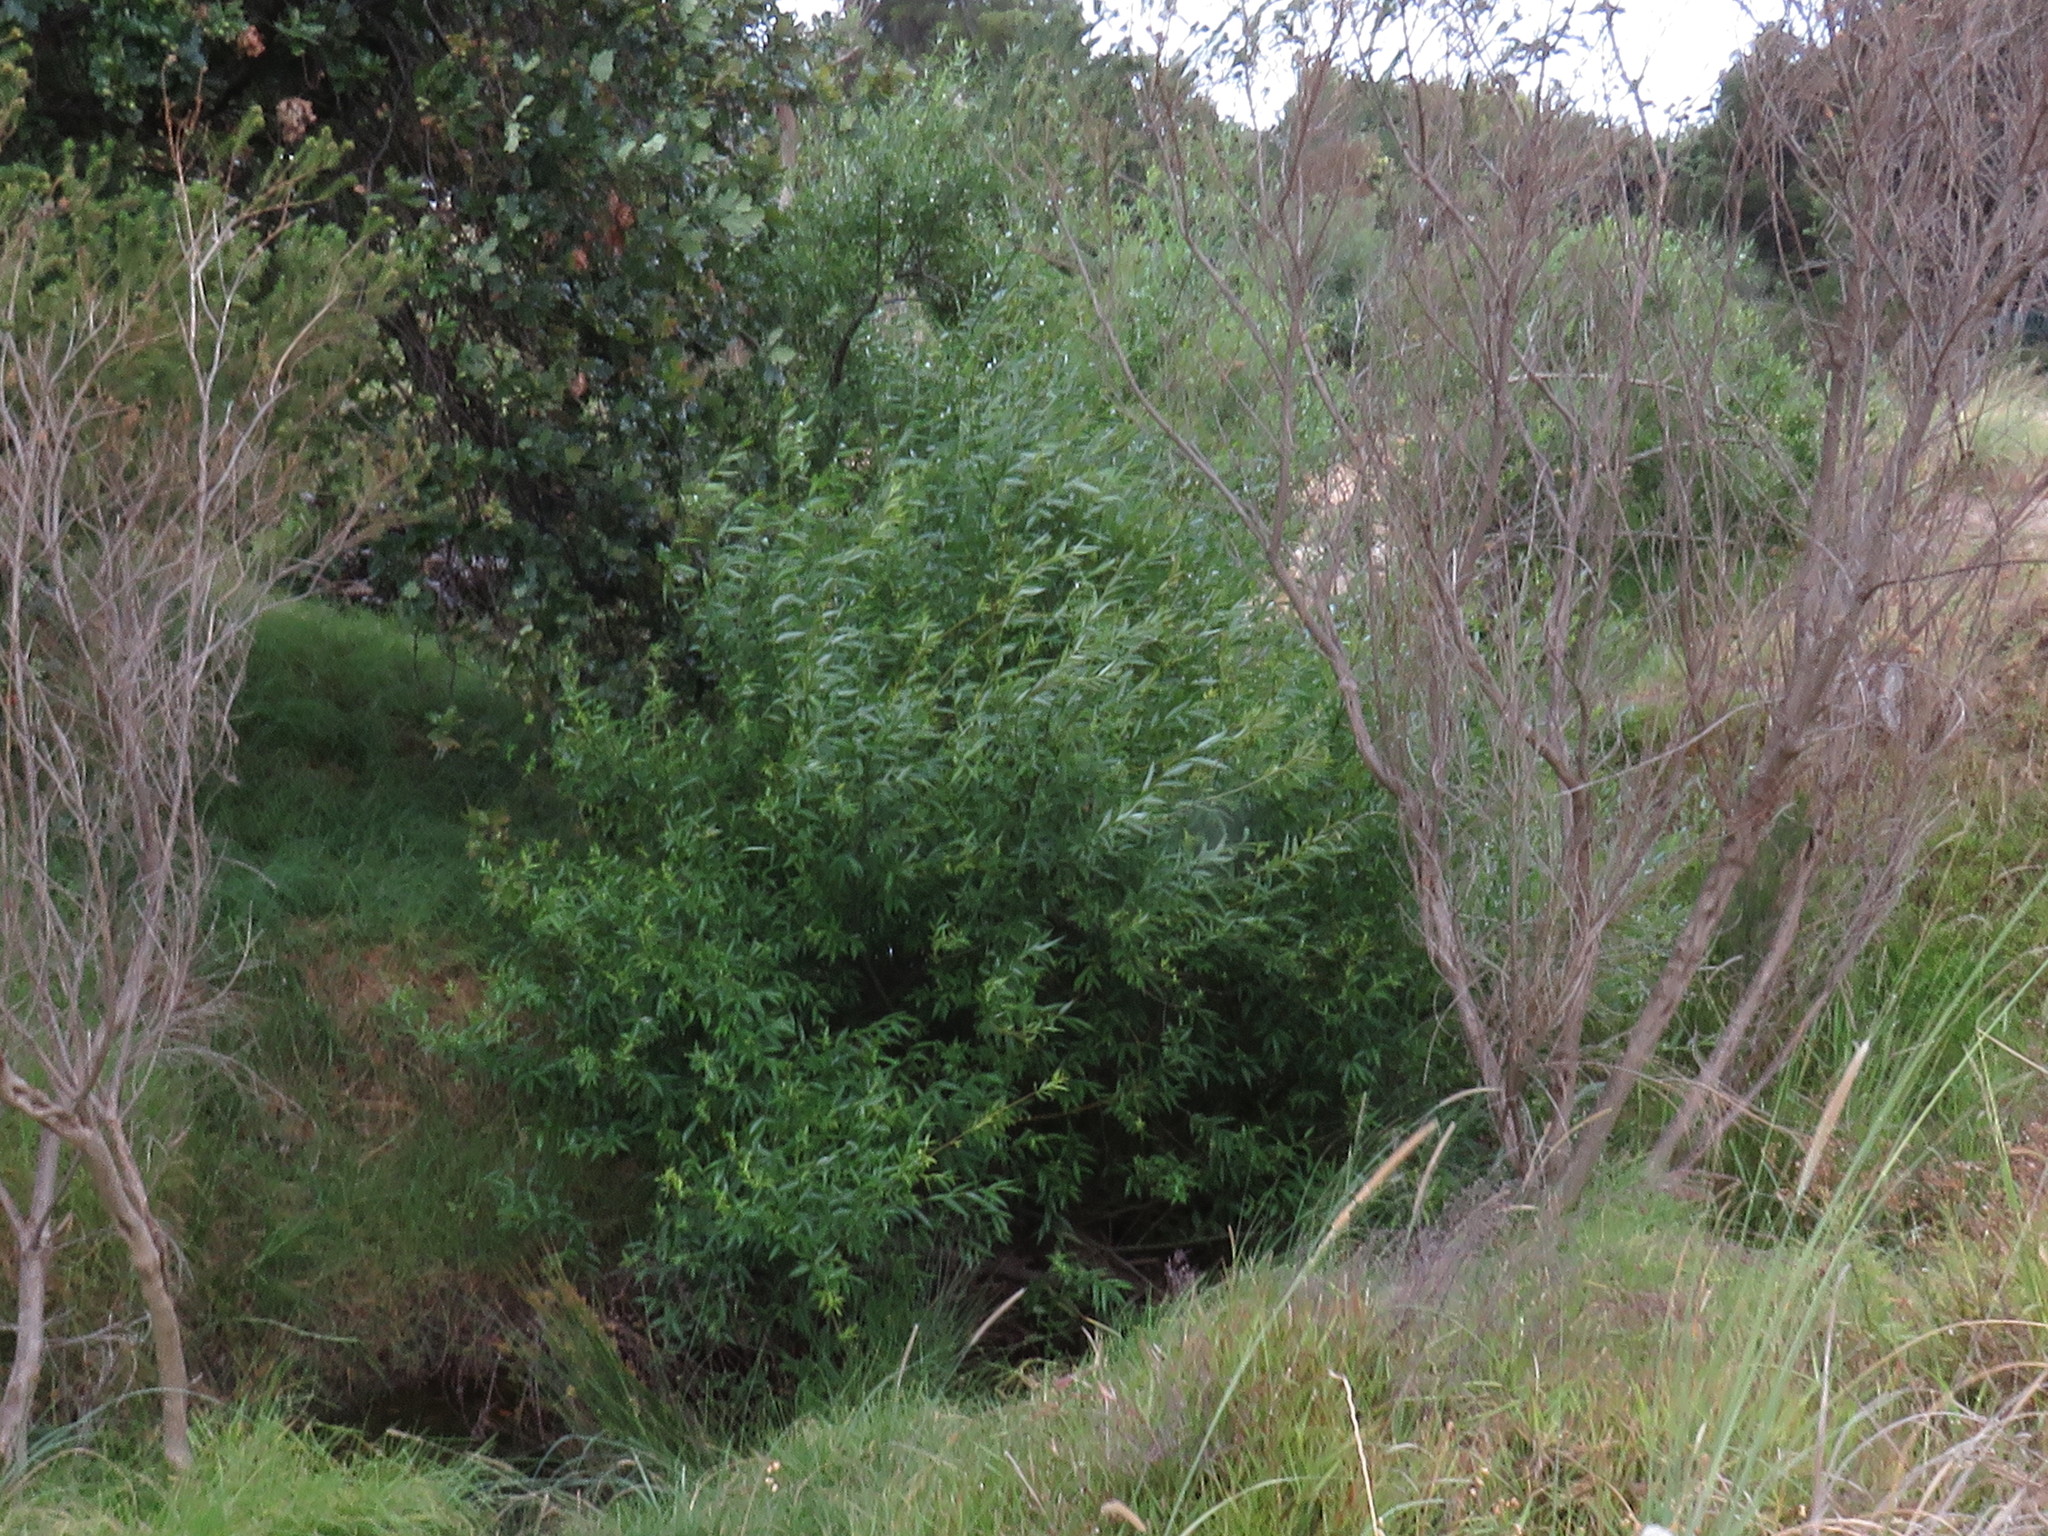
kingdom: Plantae
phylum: Tracheophyta
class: Magnoliopsida
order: Malpighiales
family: Salicaceae
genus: Salix
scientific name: Salix fragilis
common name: Crack willow
